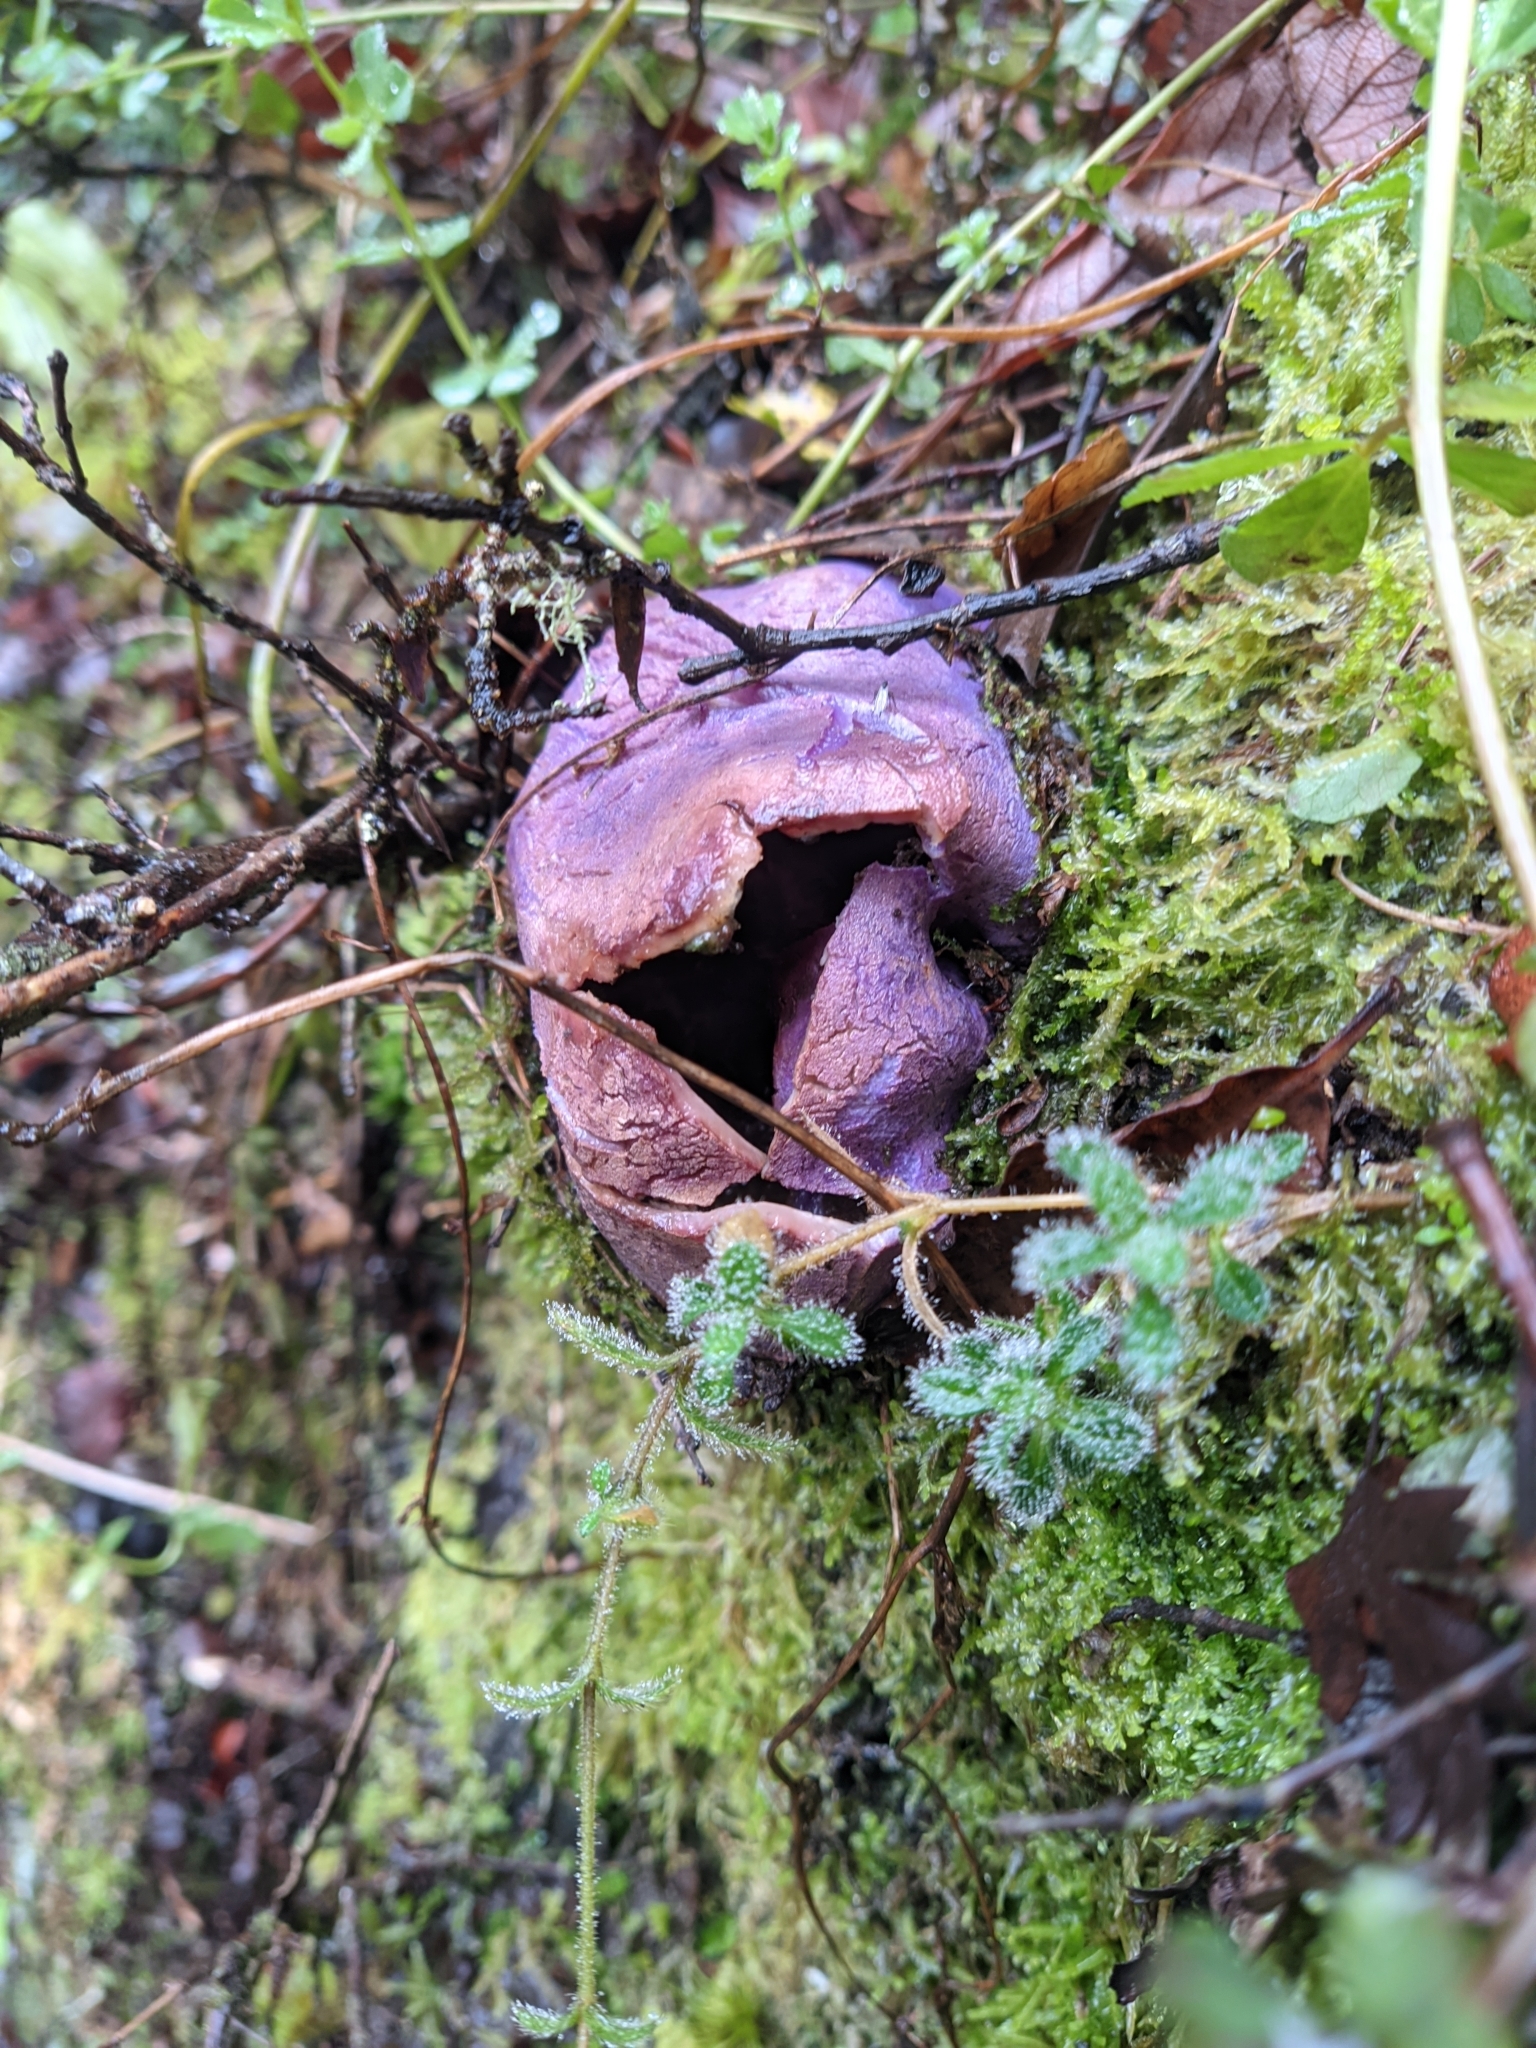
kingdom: Fungi
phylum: Basidiomycota
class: Agaricomycetes
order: Hysterangiales
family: Gallaceaceae
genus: Gallacea
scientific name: Gallacea scleroderma
